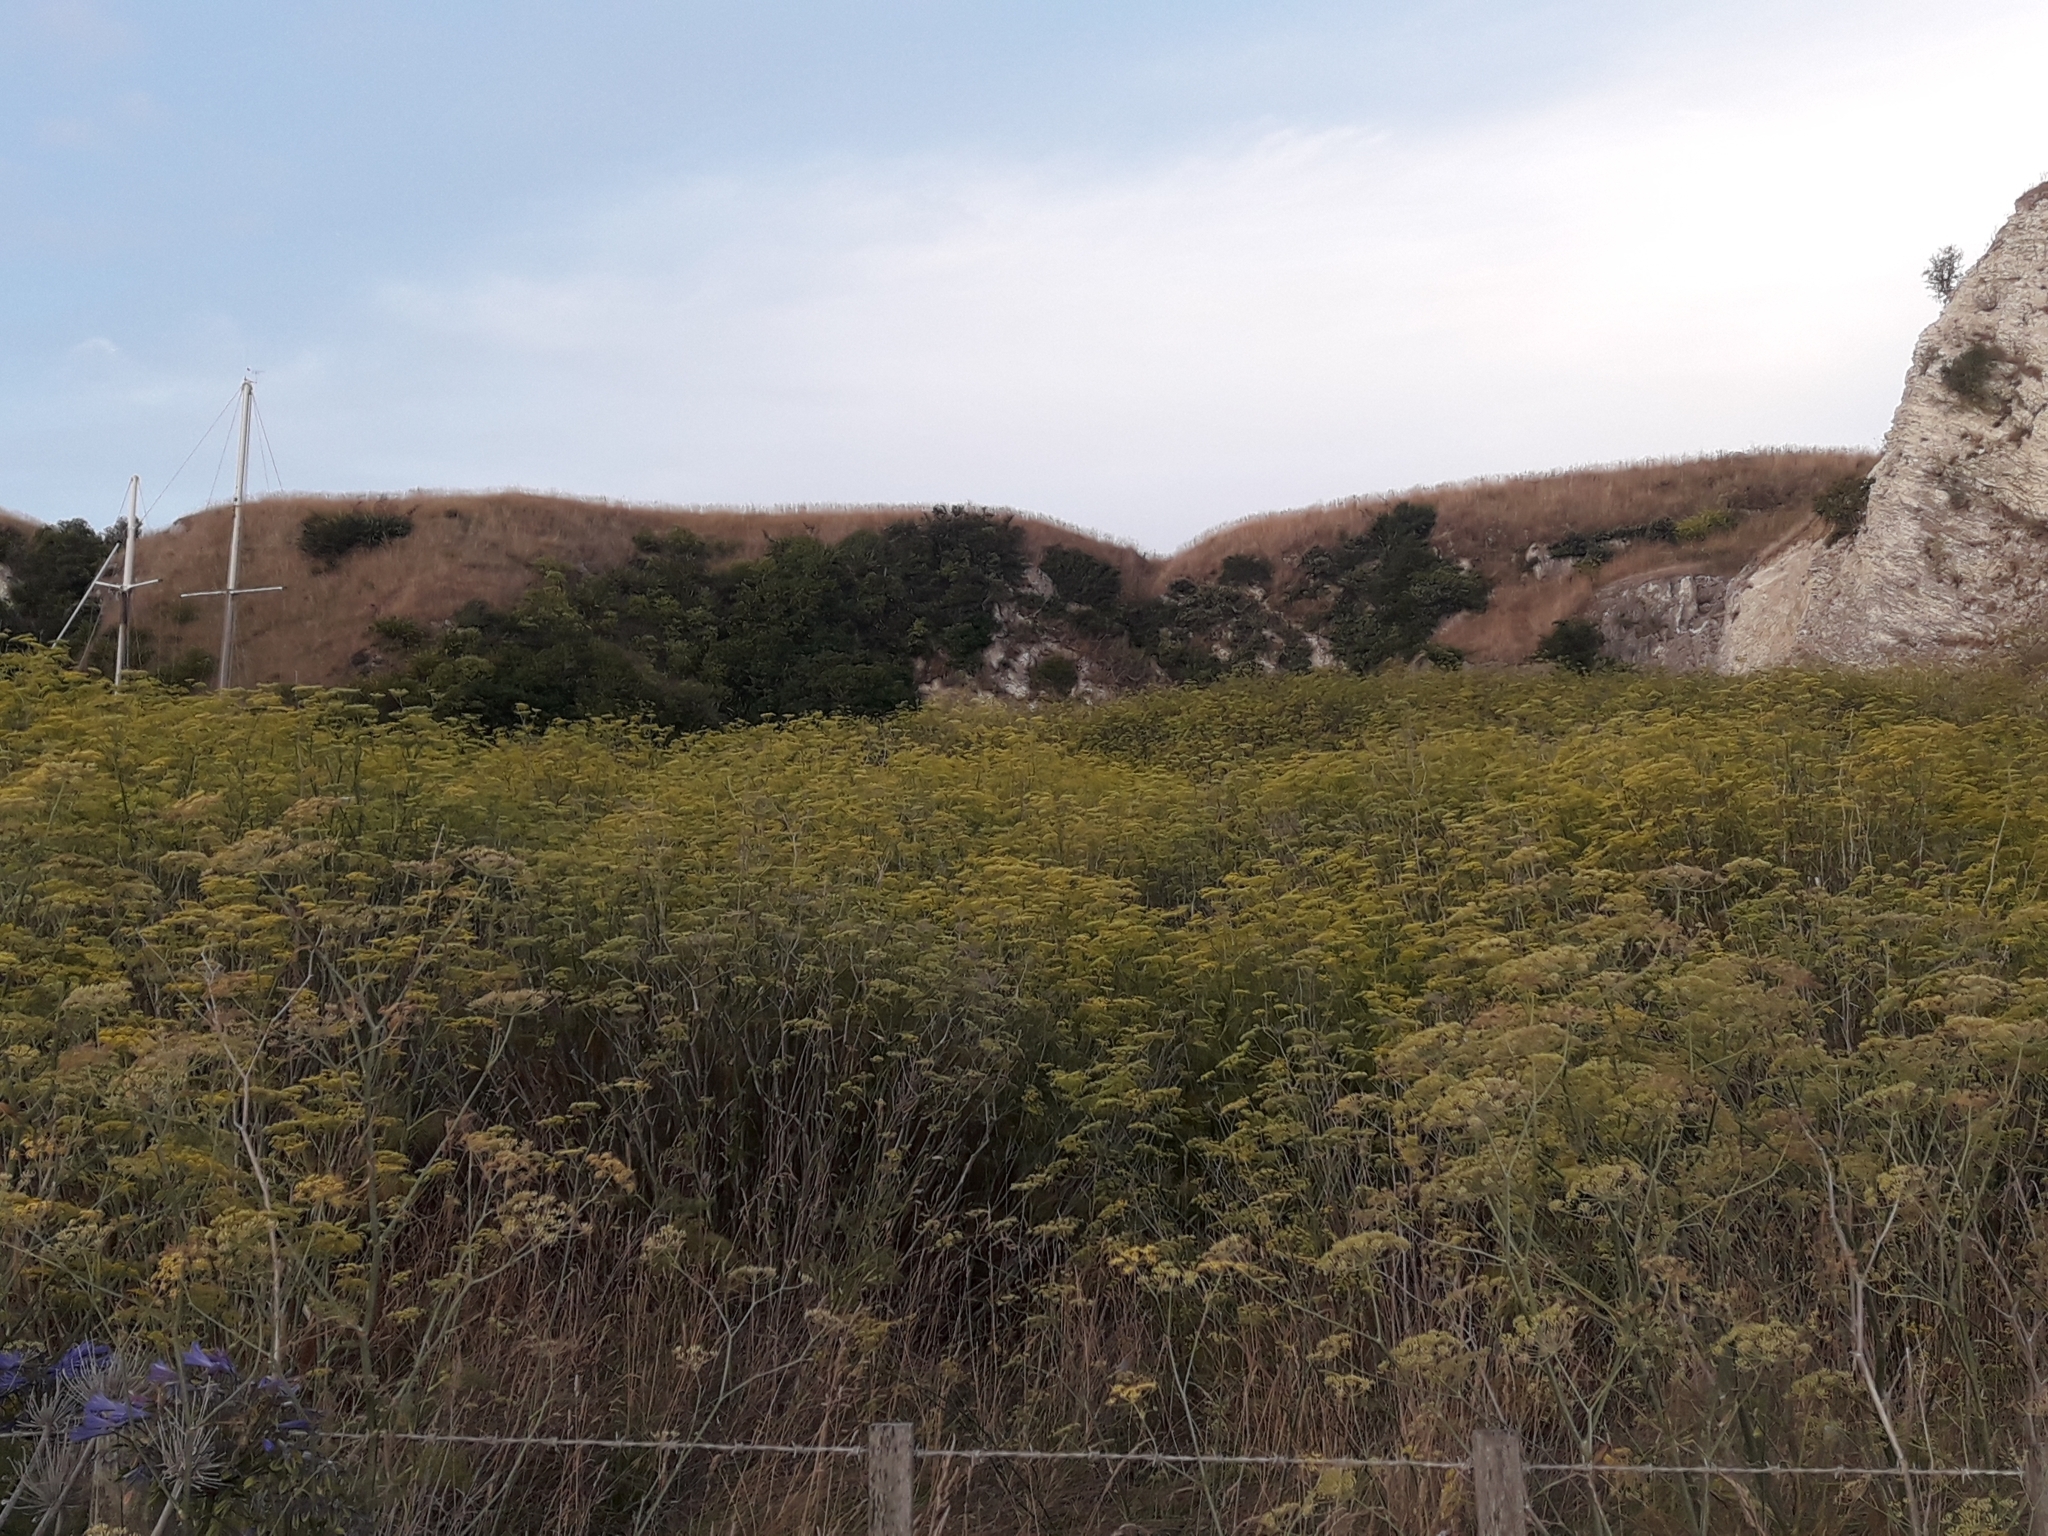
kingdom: Plantae
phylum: Tracheophyta
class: Magnoliopsida
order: Apiales
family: Apiaceae
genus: Foeniculum
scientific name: Foeniculum vulgare
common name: Fennel
